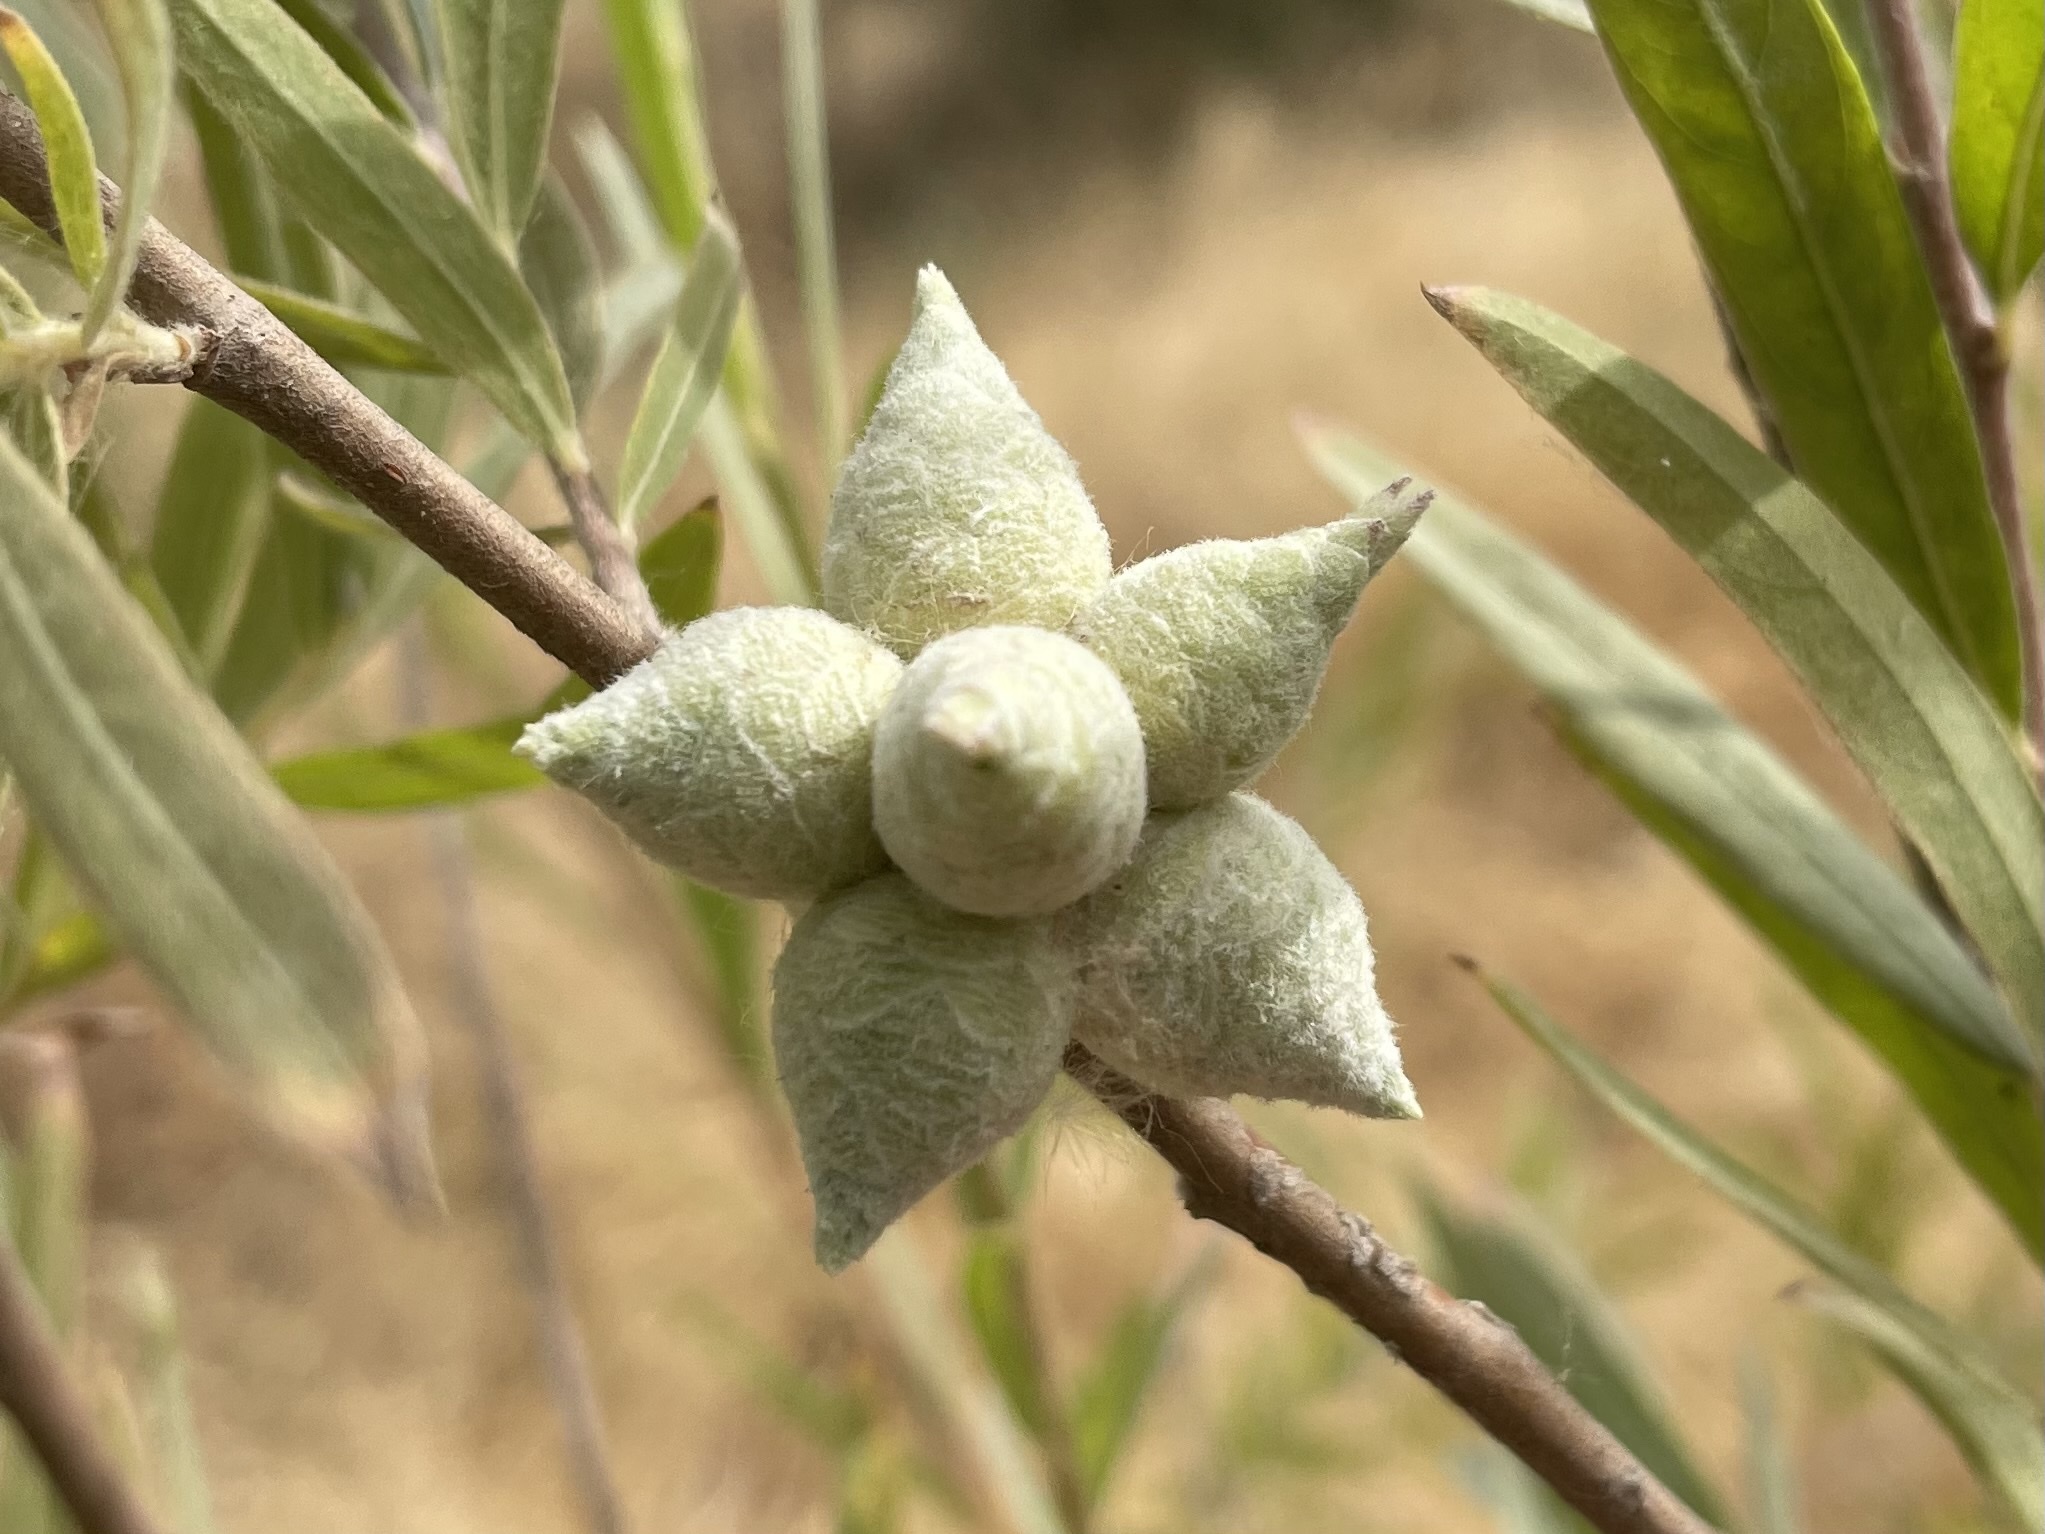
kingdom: Animalia
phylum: Arthropoda
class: Insecta
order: Diptera
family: Cecidomyiidae
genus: Rabdophaga
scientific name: Rabdophaga strobiloides
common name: Willow pinecone gall midge
